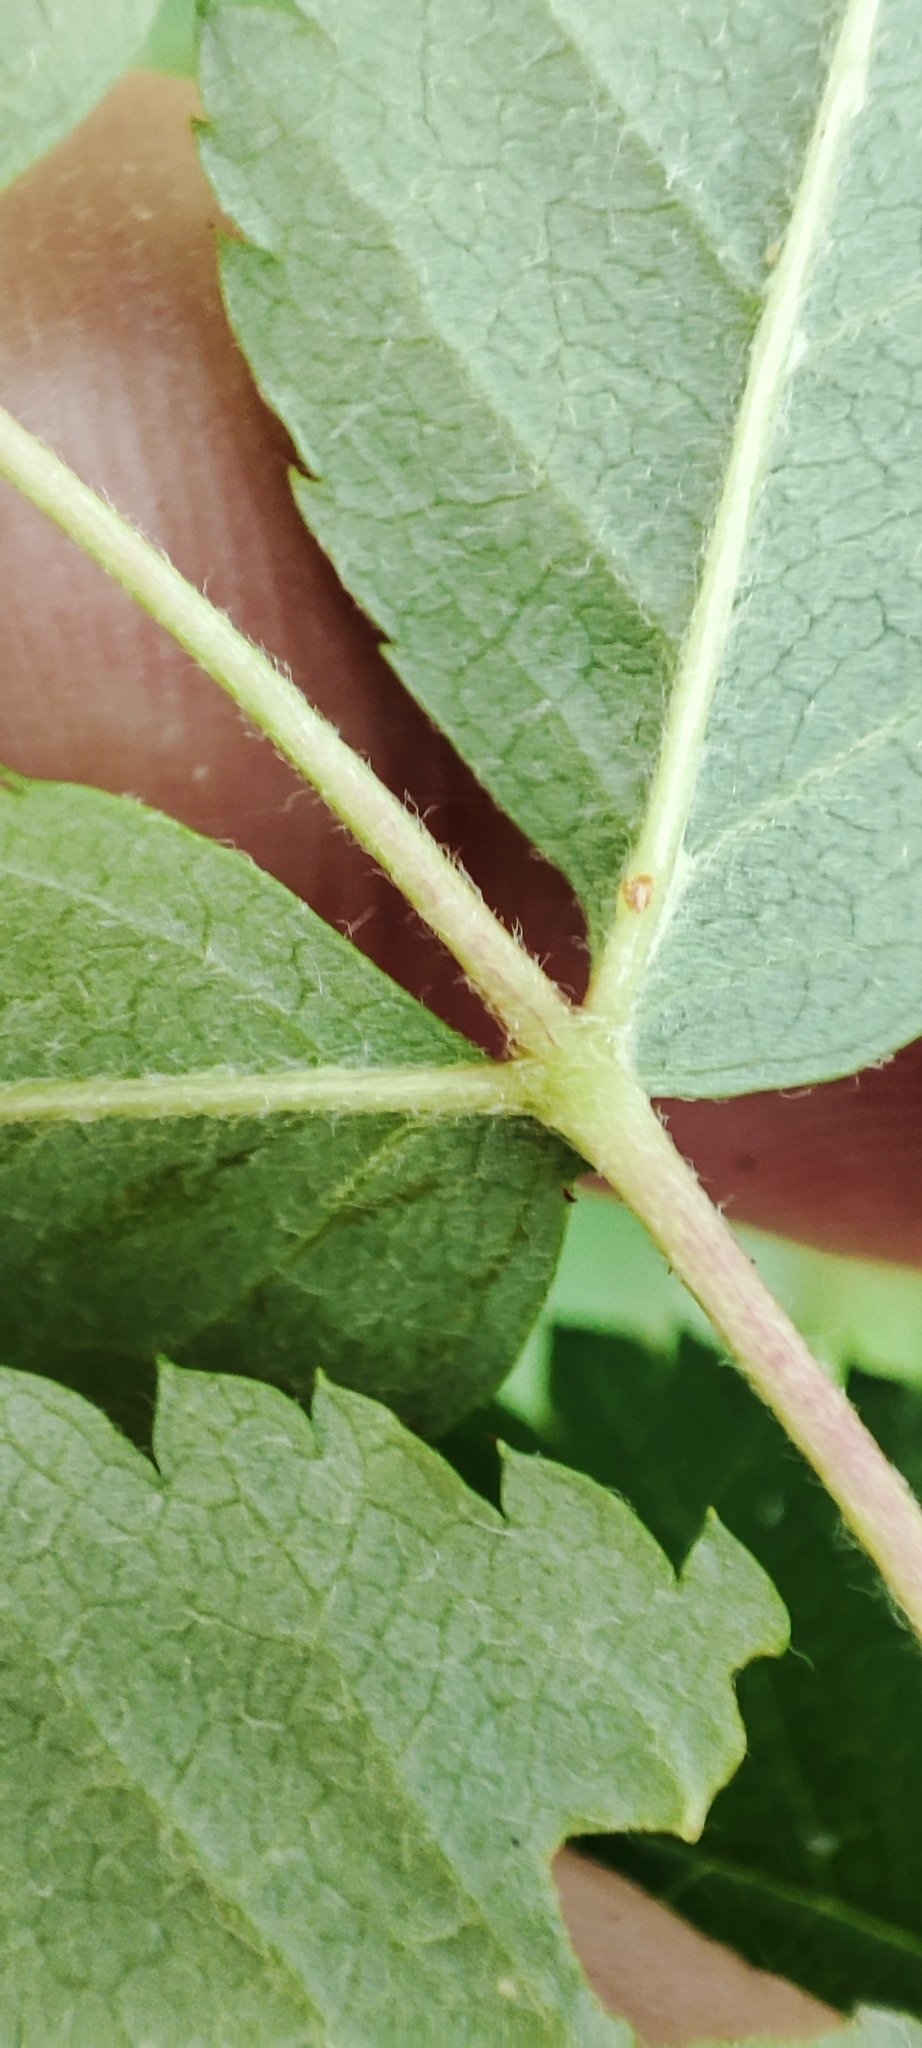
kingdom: Plantae
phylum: Tracheophyta
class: Magnoliopsida
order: Rosales
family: Rosaceae
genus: Sorbus
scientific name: Sorbus aucuparia
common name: Rowan
